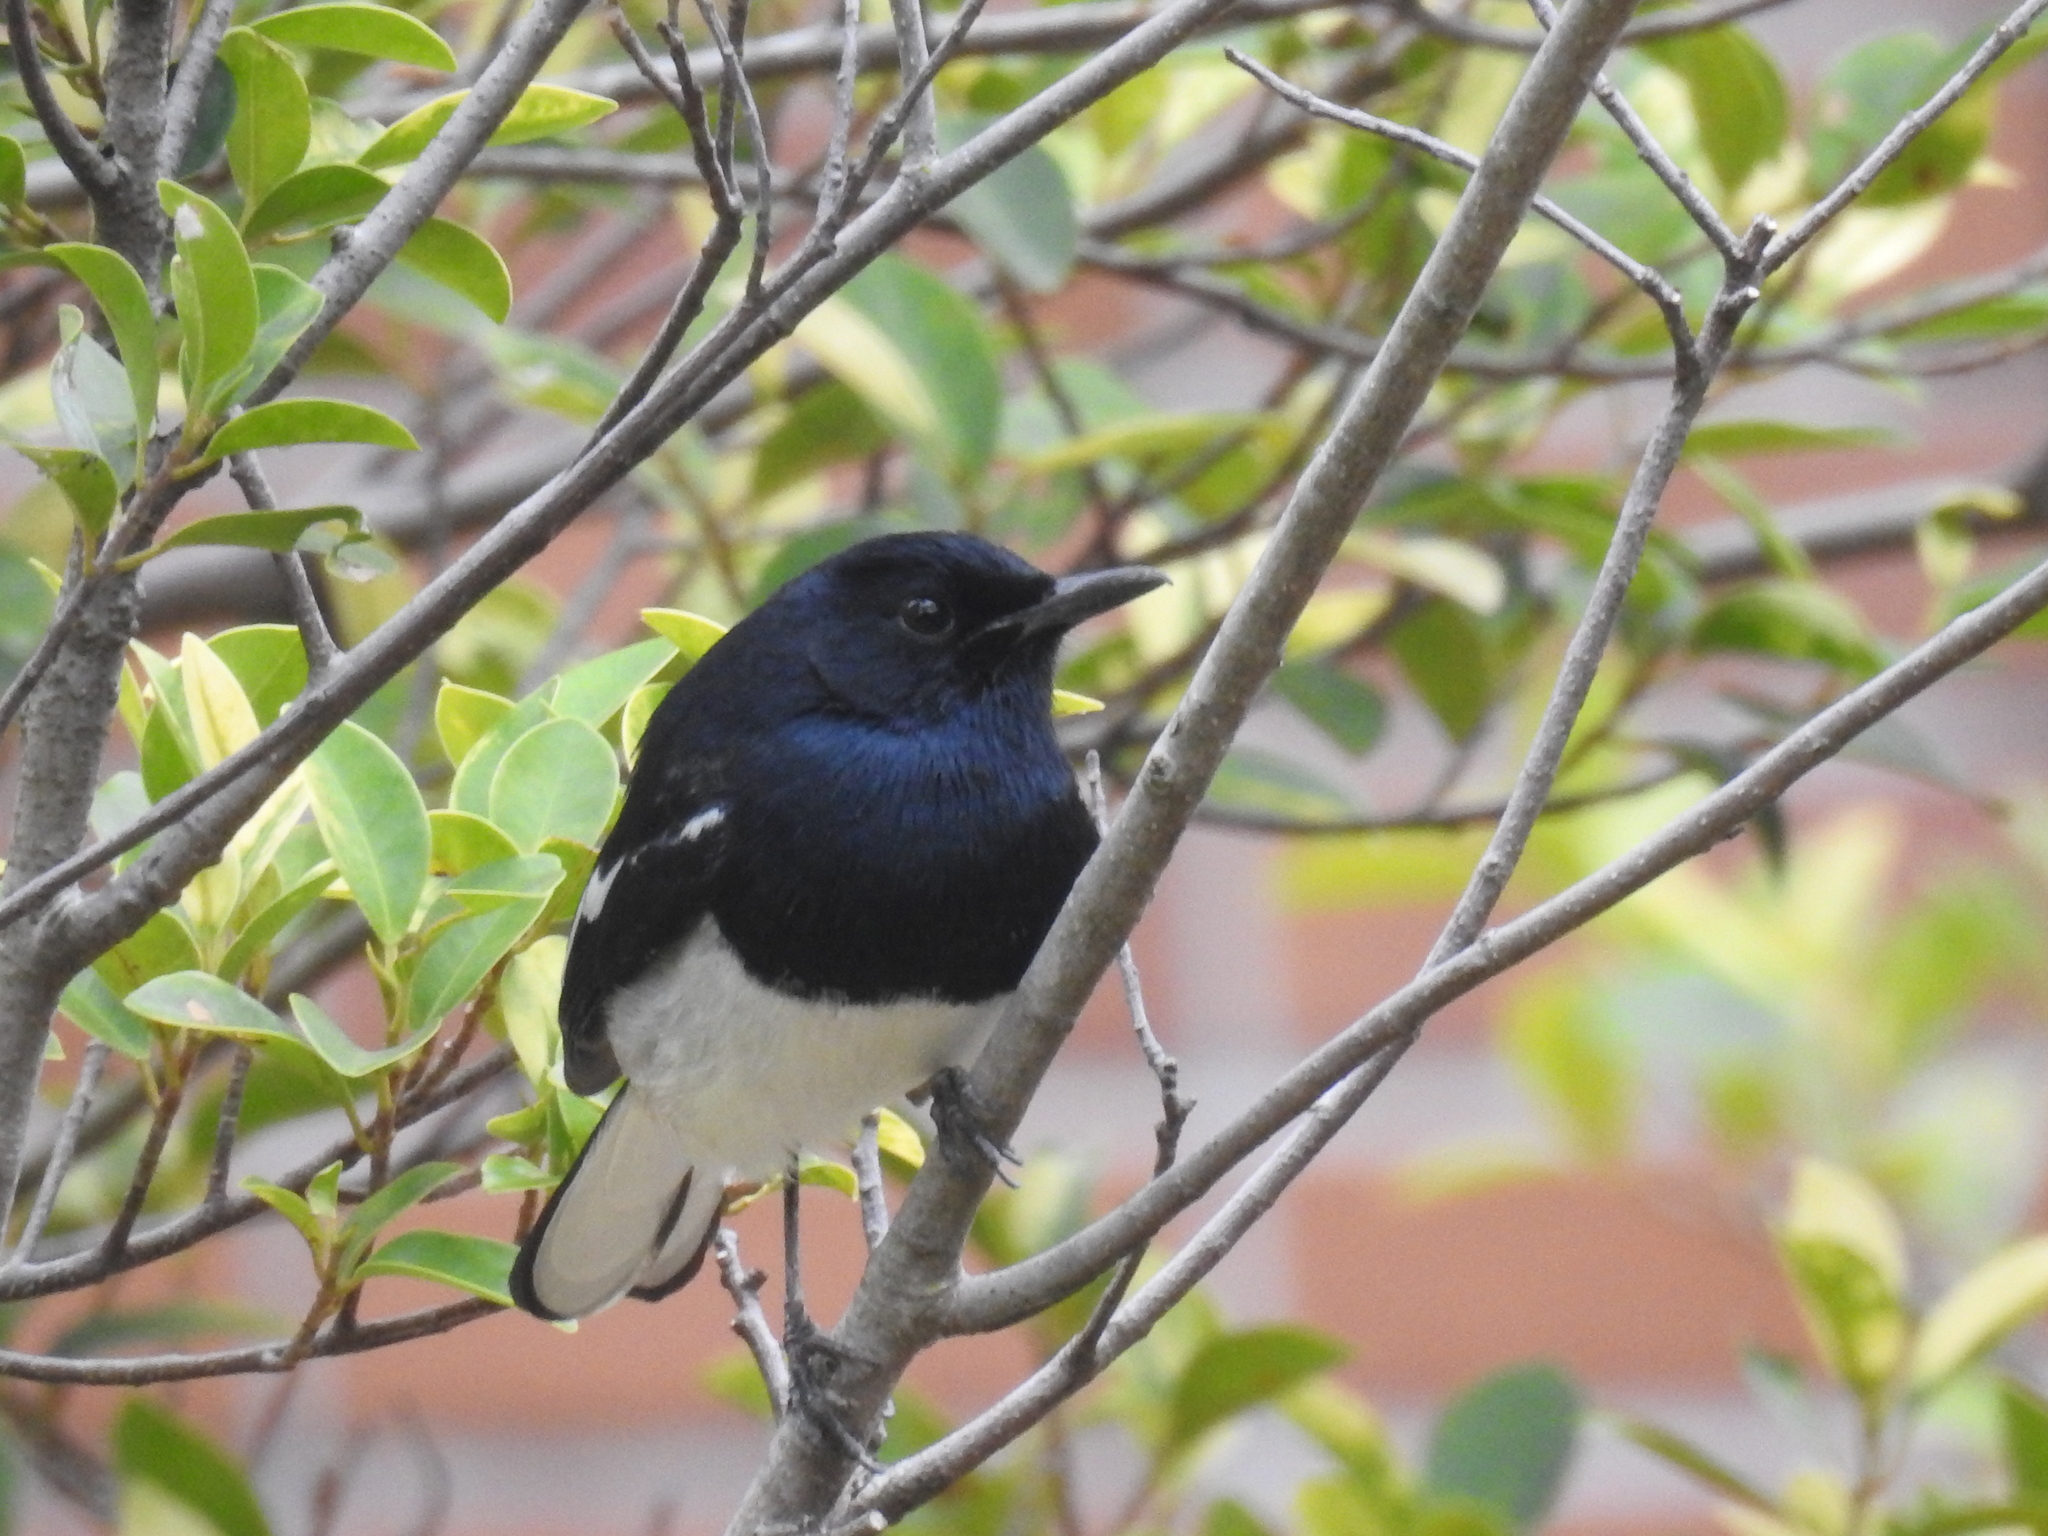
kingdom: Animalia
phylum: Chordata
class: Aves
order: Passeriformes
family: Muscicapidae
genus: Copsychus
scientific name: Copsychus saularis
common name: Oriental magpie-robin
